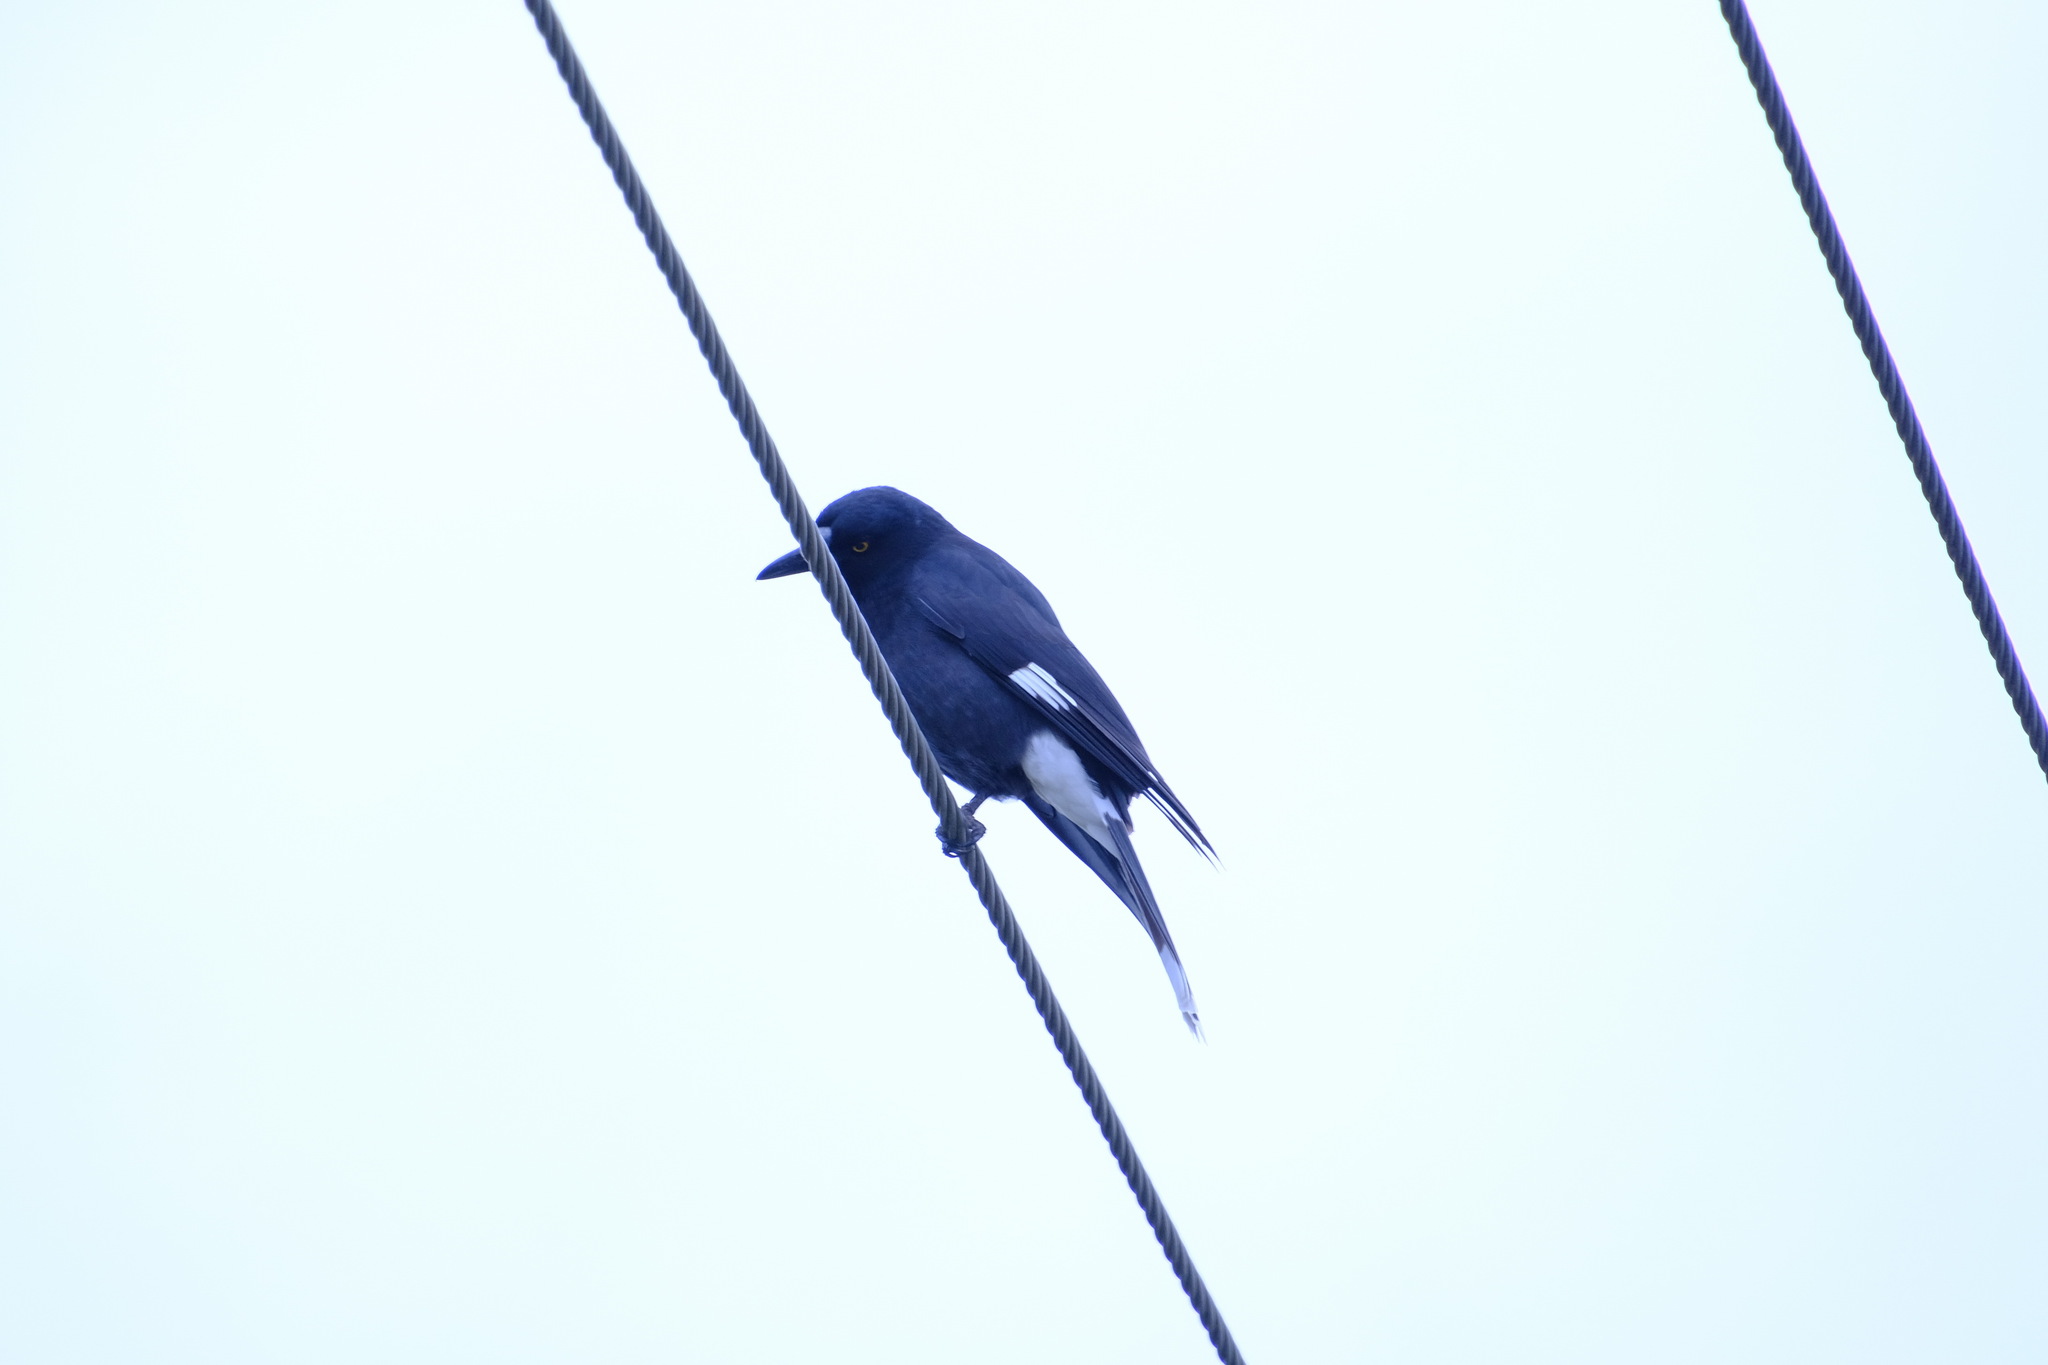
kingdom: Animalia
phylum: Chordata
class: Aves
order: Passeriformes
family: Cracticidae
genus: Strepera
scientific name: Strepera graculina
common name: Pied currawong
